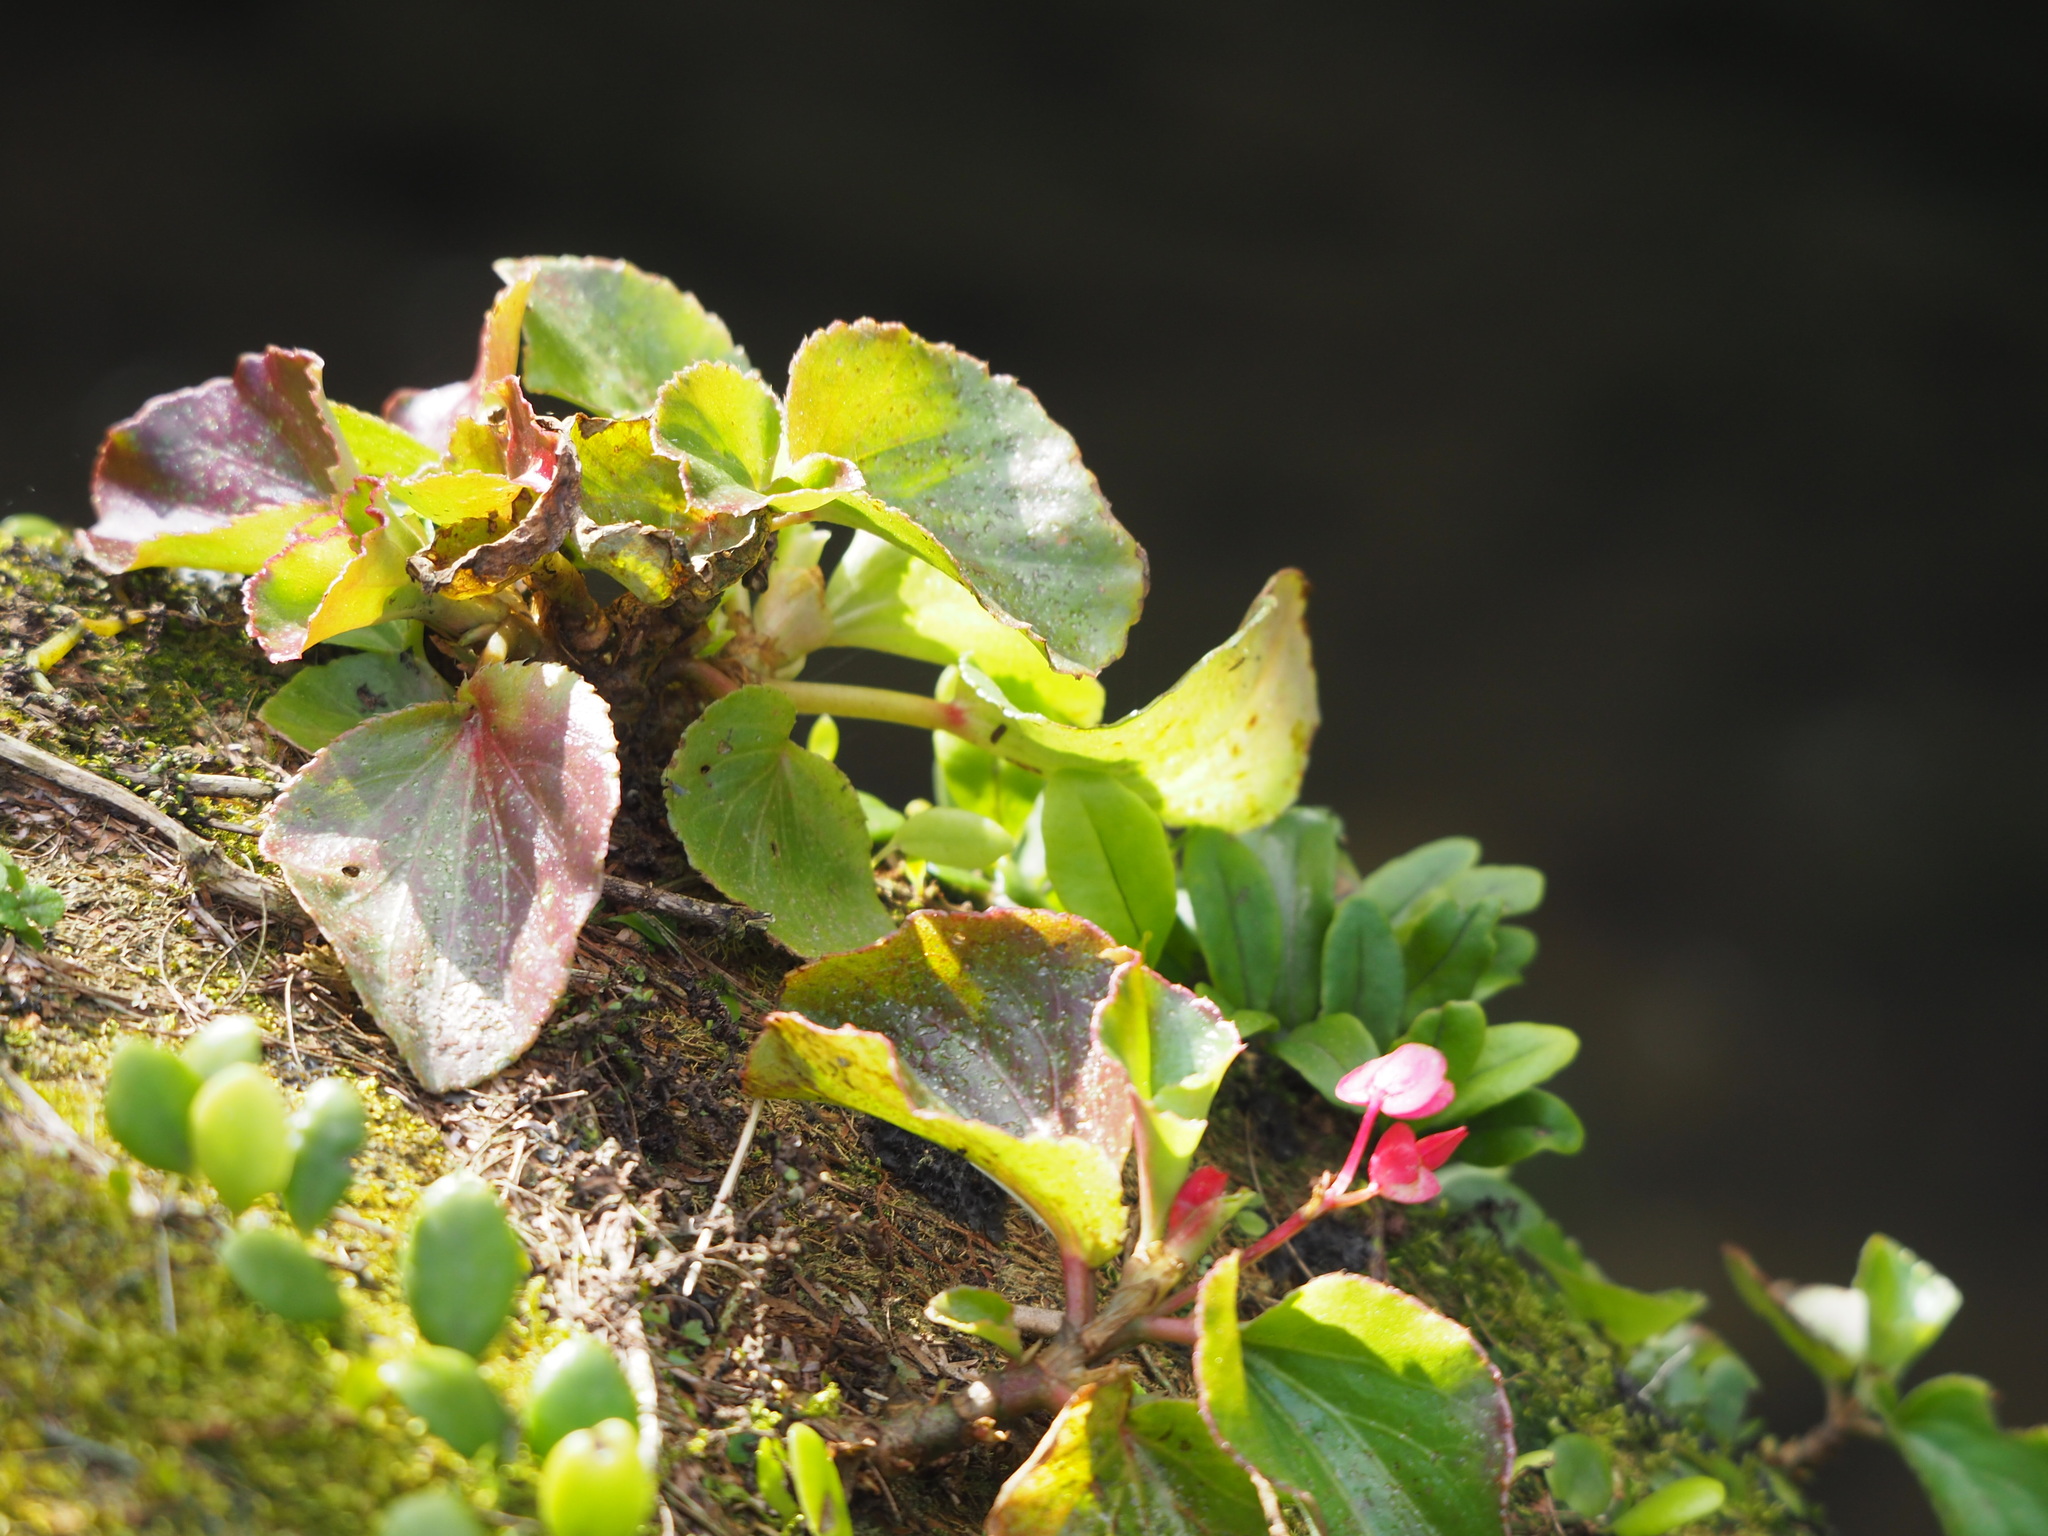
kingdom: Plantae
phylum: Tracheophyta
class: Magnoliopsida
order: Cucurbitales
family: Begoniaceae
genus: Begonia
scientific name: Begonia cucullata
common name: Clubbed begonia
